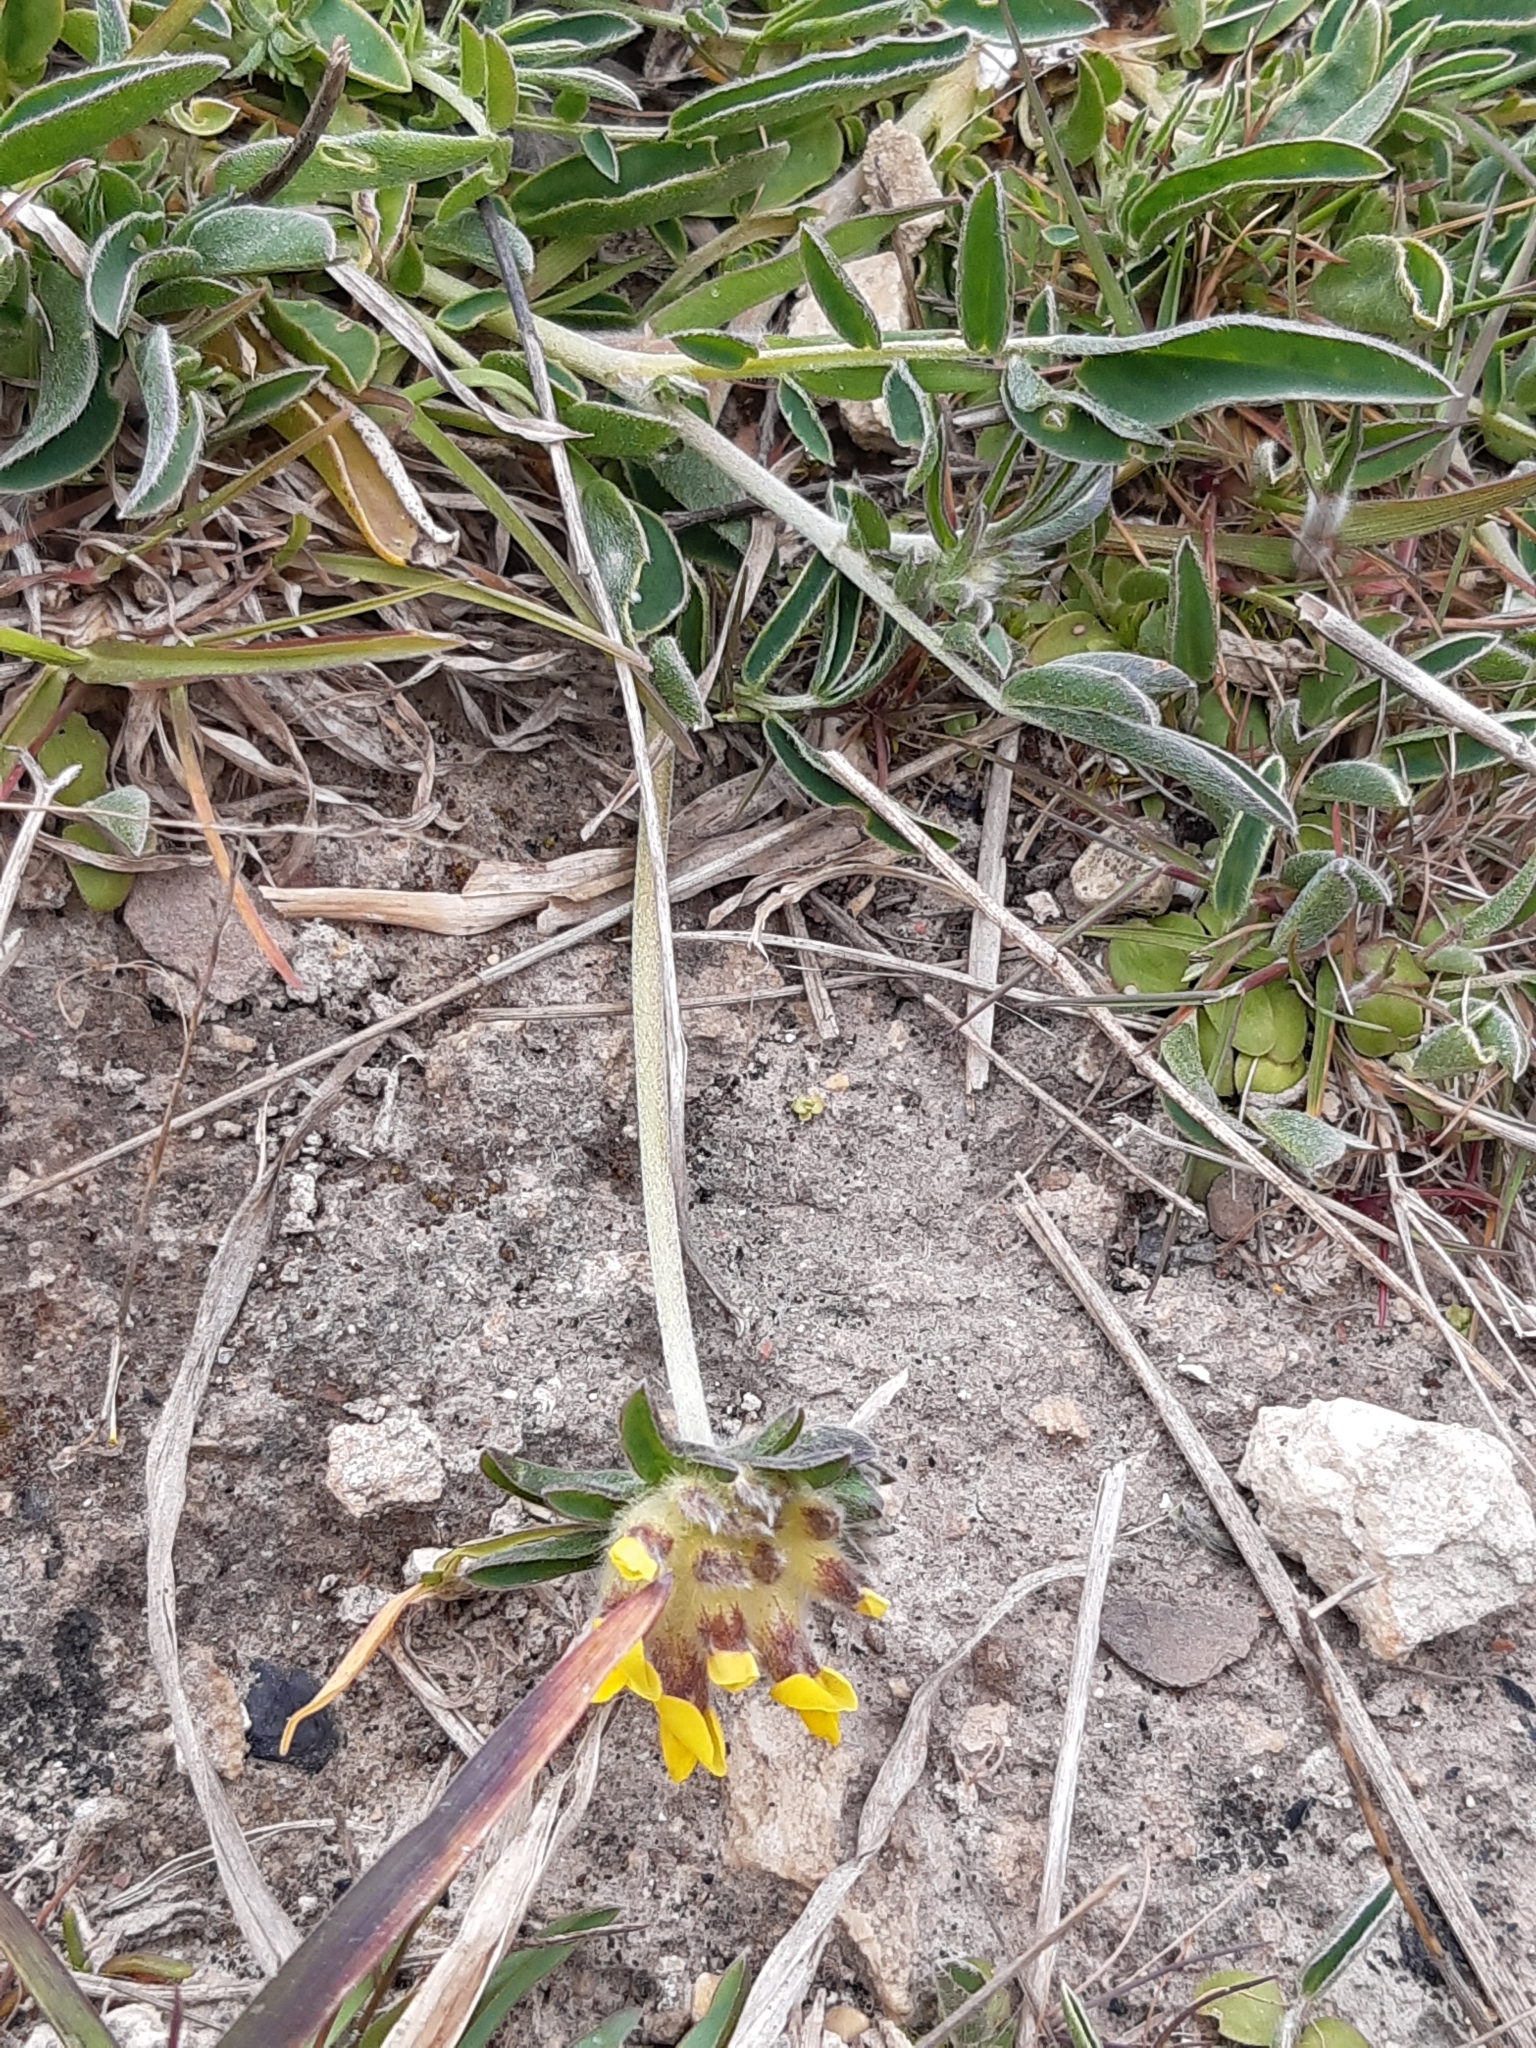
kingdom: Plantae
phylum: Tracheophyta
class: Magnoliopsida
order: Fabales
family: Fabaceae
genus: Anthyllis
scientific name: Anthyllis vulneraria
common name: Kidney vetch
